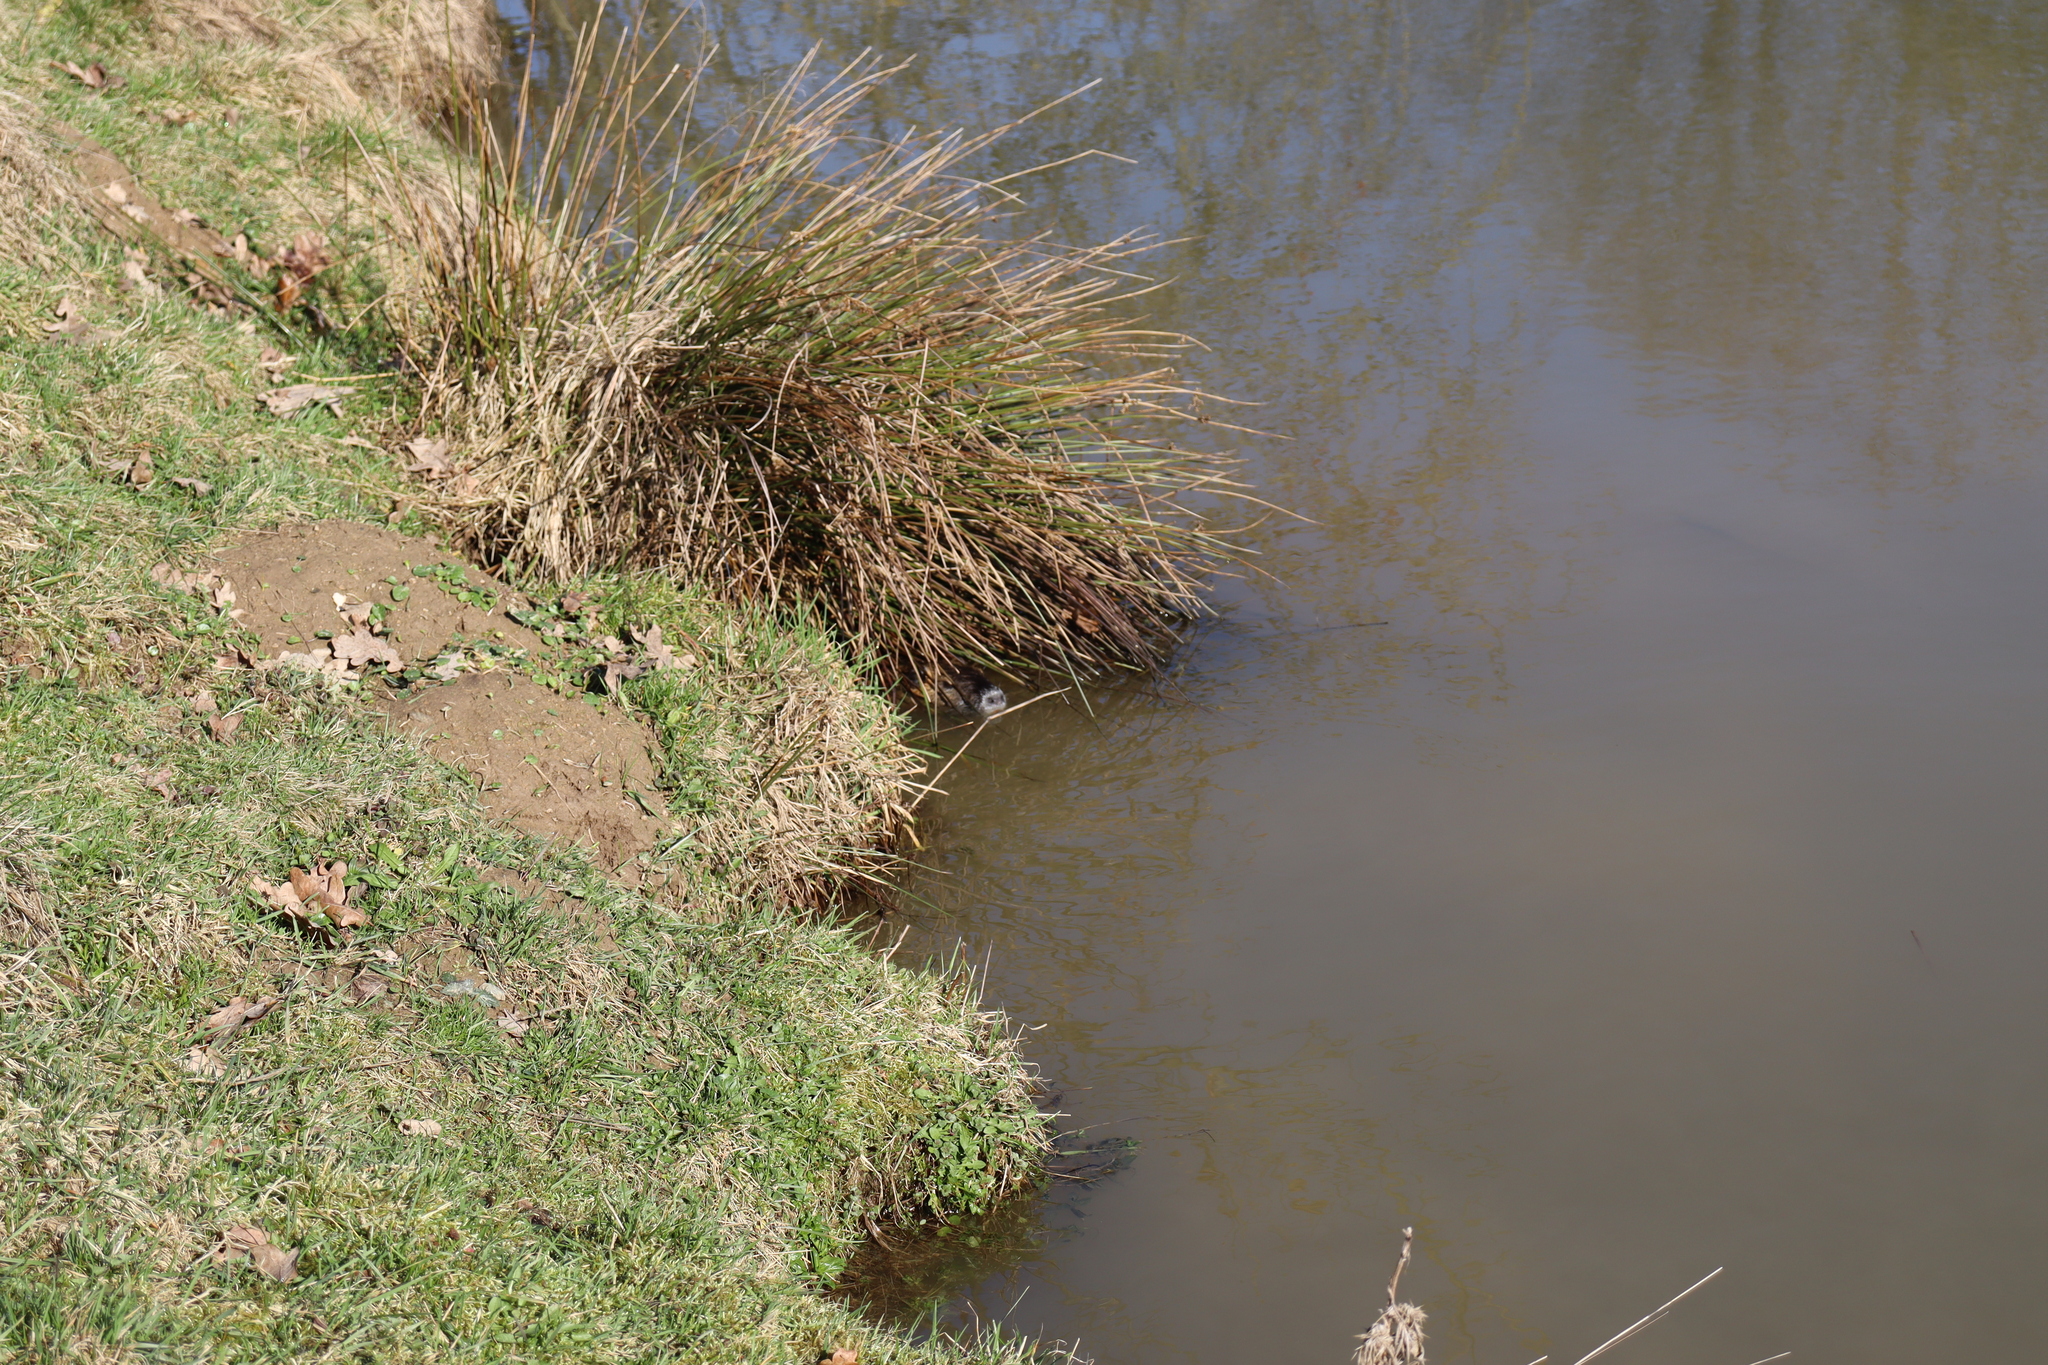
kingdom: Animalia
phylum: Chordata
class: Mammalia
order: Rodentia
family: Myocastoridae
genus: Myocastor
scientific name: Myocastor coypus
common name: Coypu
